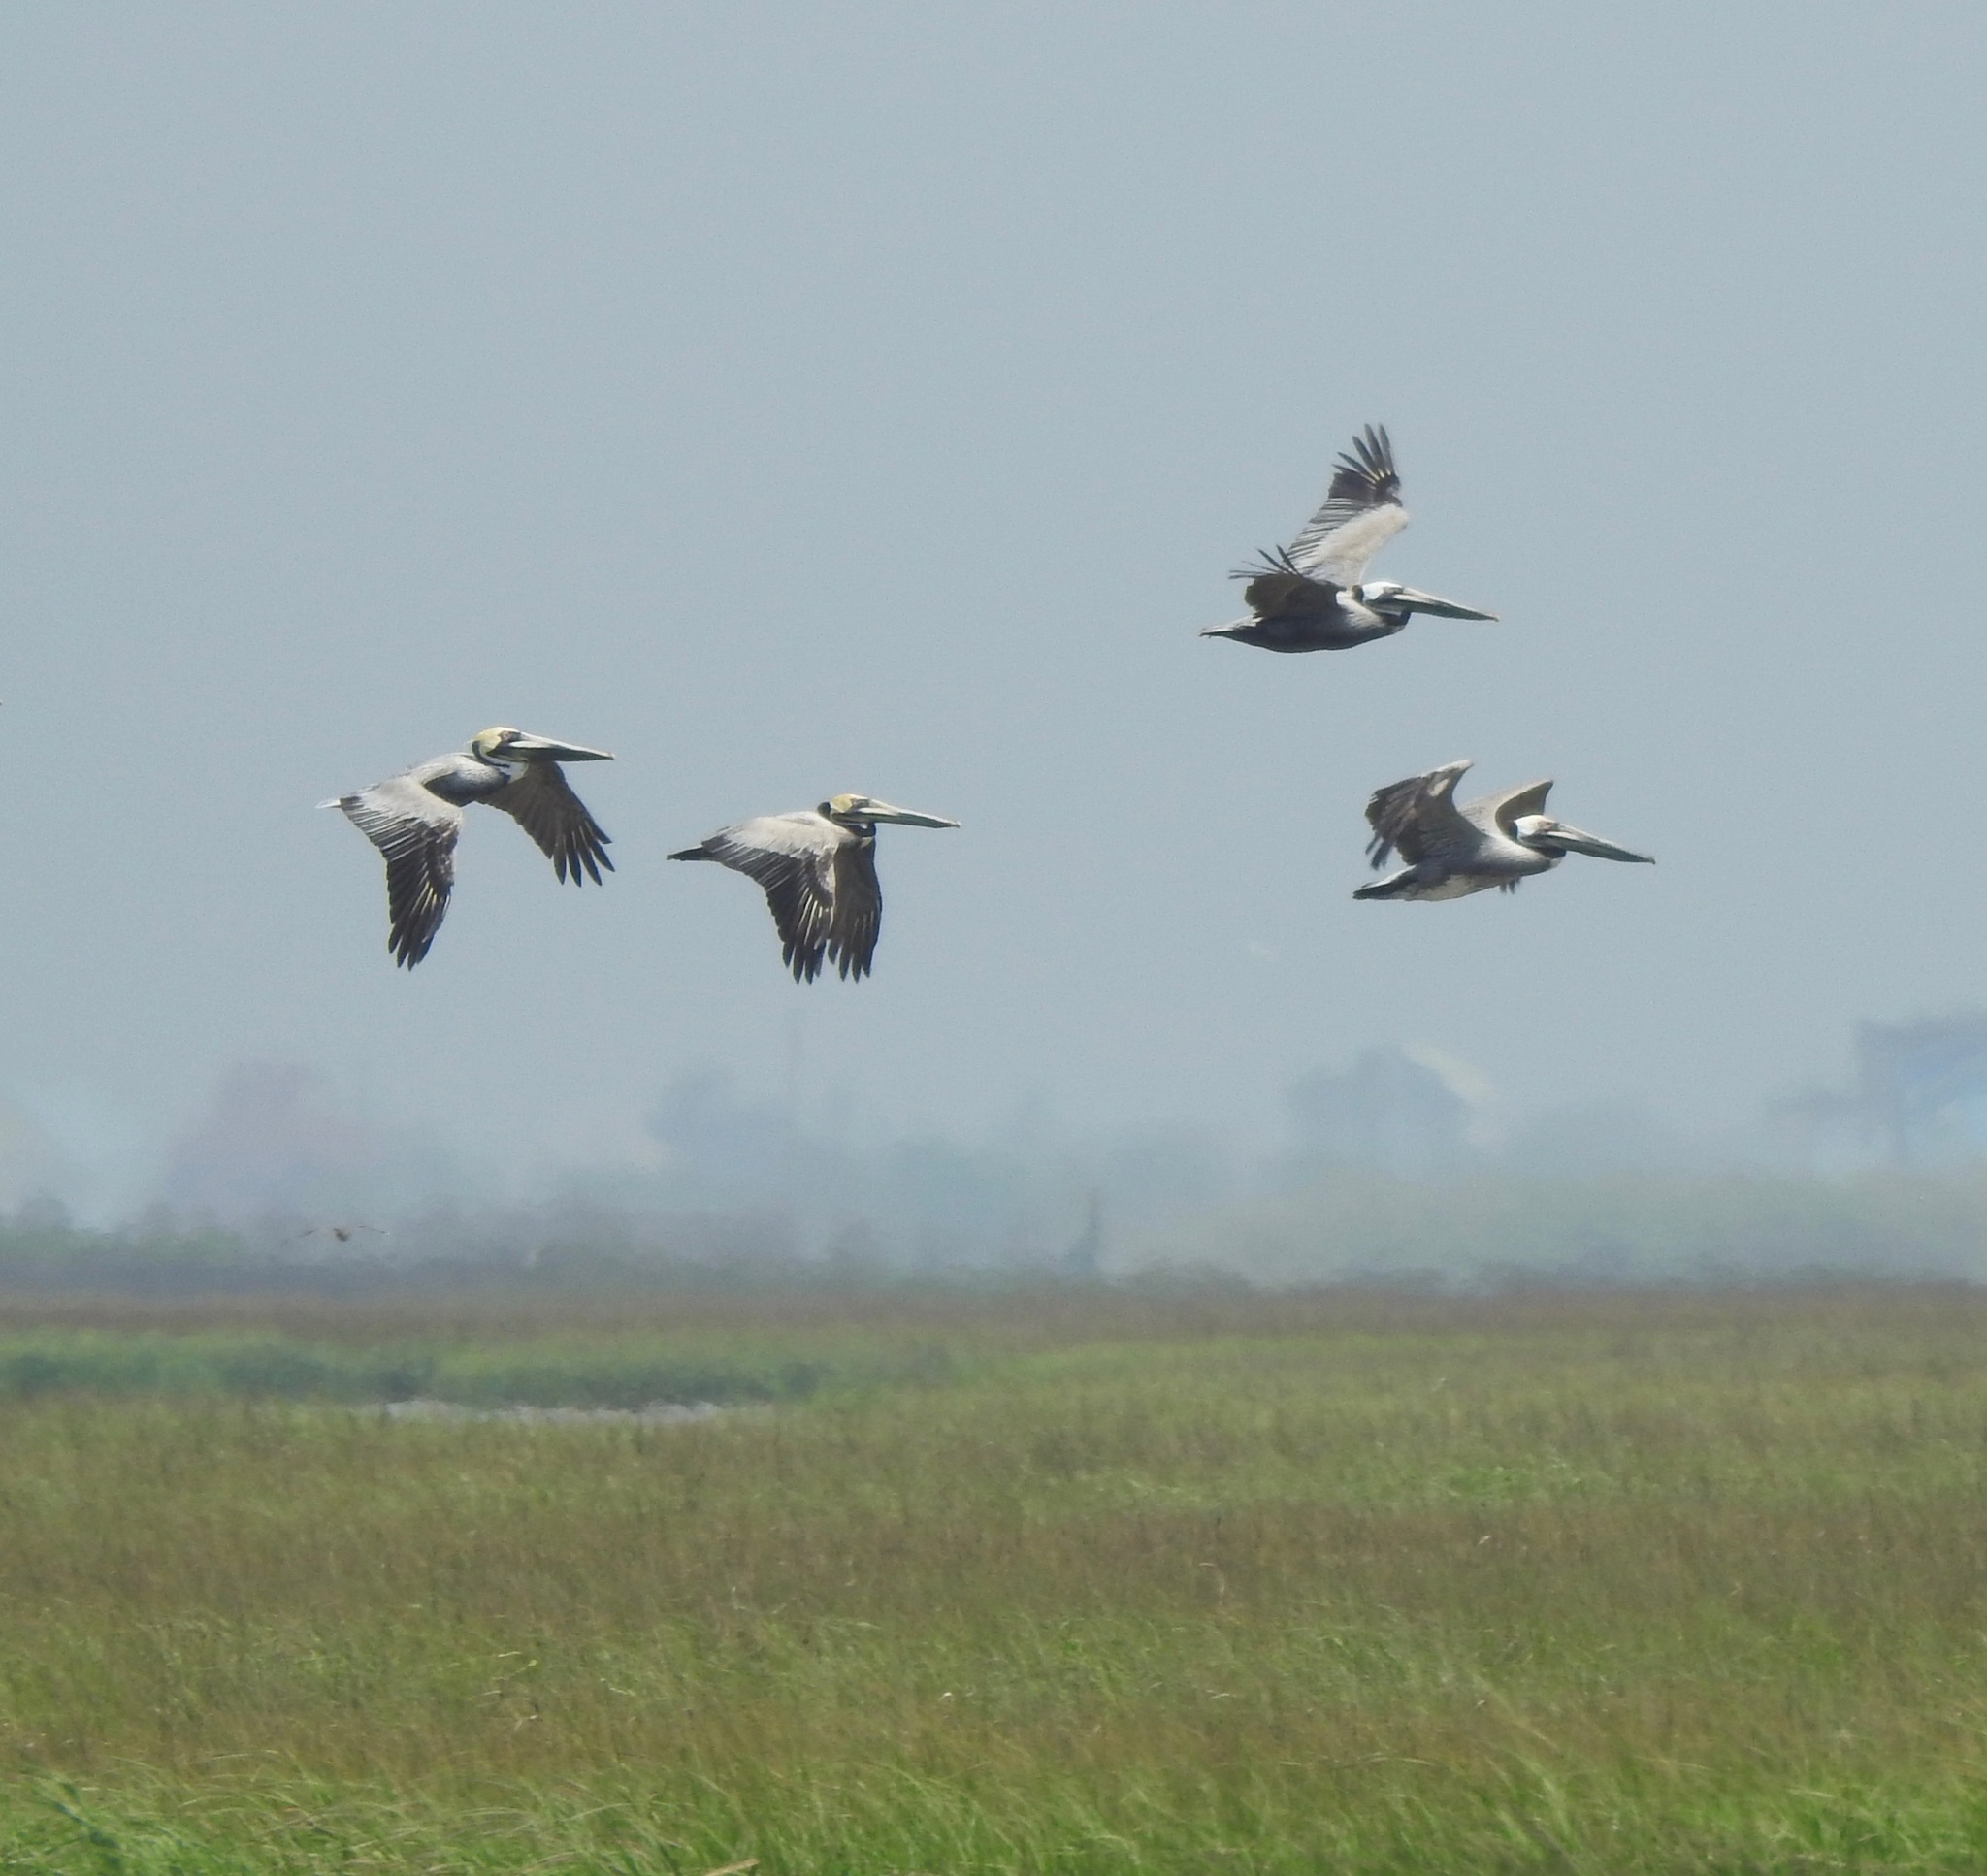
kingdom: Animalia
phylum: Chordata
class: Aves
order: Pelecaniformes
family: Pelecanidae
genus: Pelecanus
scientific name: Pelecanus occidentalis
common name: Brown pelican
